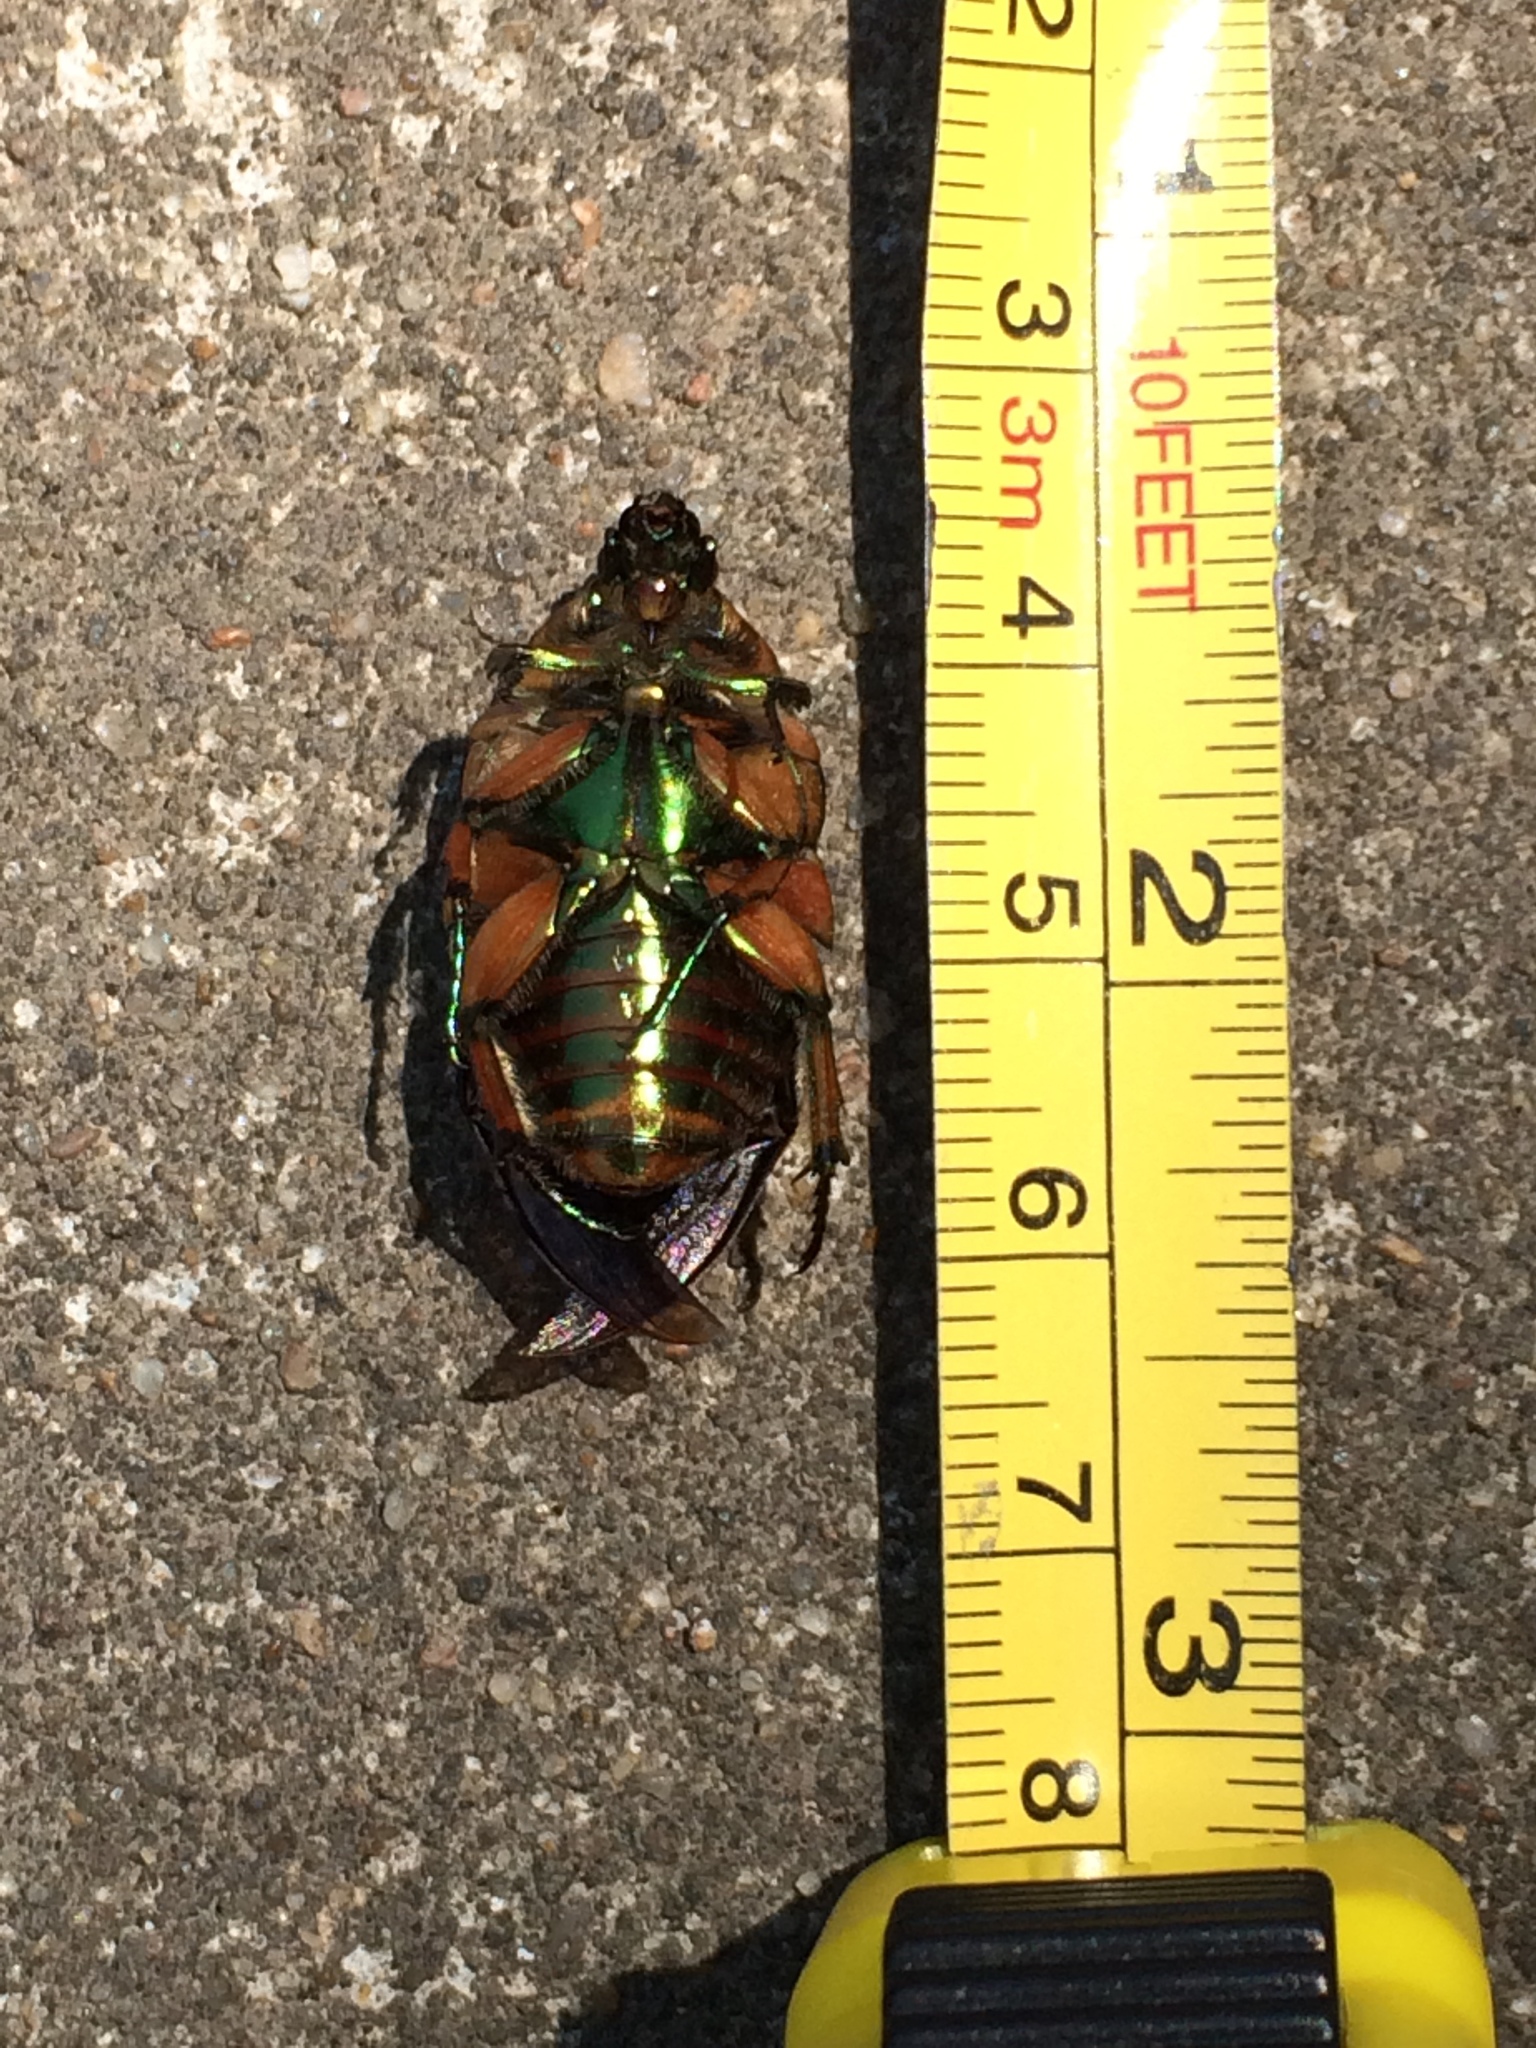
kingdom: Animalia
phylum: Arthropoda
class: Insecta
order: Coleoptera
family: Scarabaeidae
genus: Cotinis
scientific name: Cotinis nitida
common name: Common green june beetle
